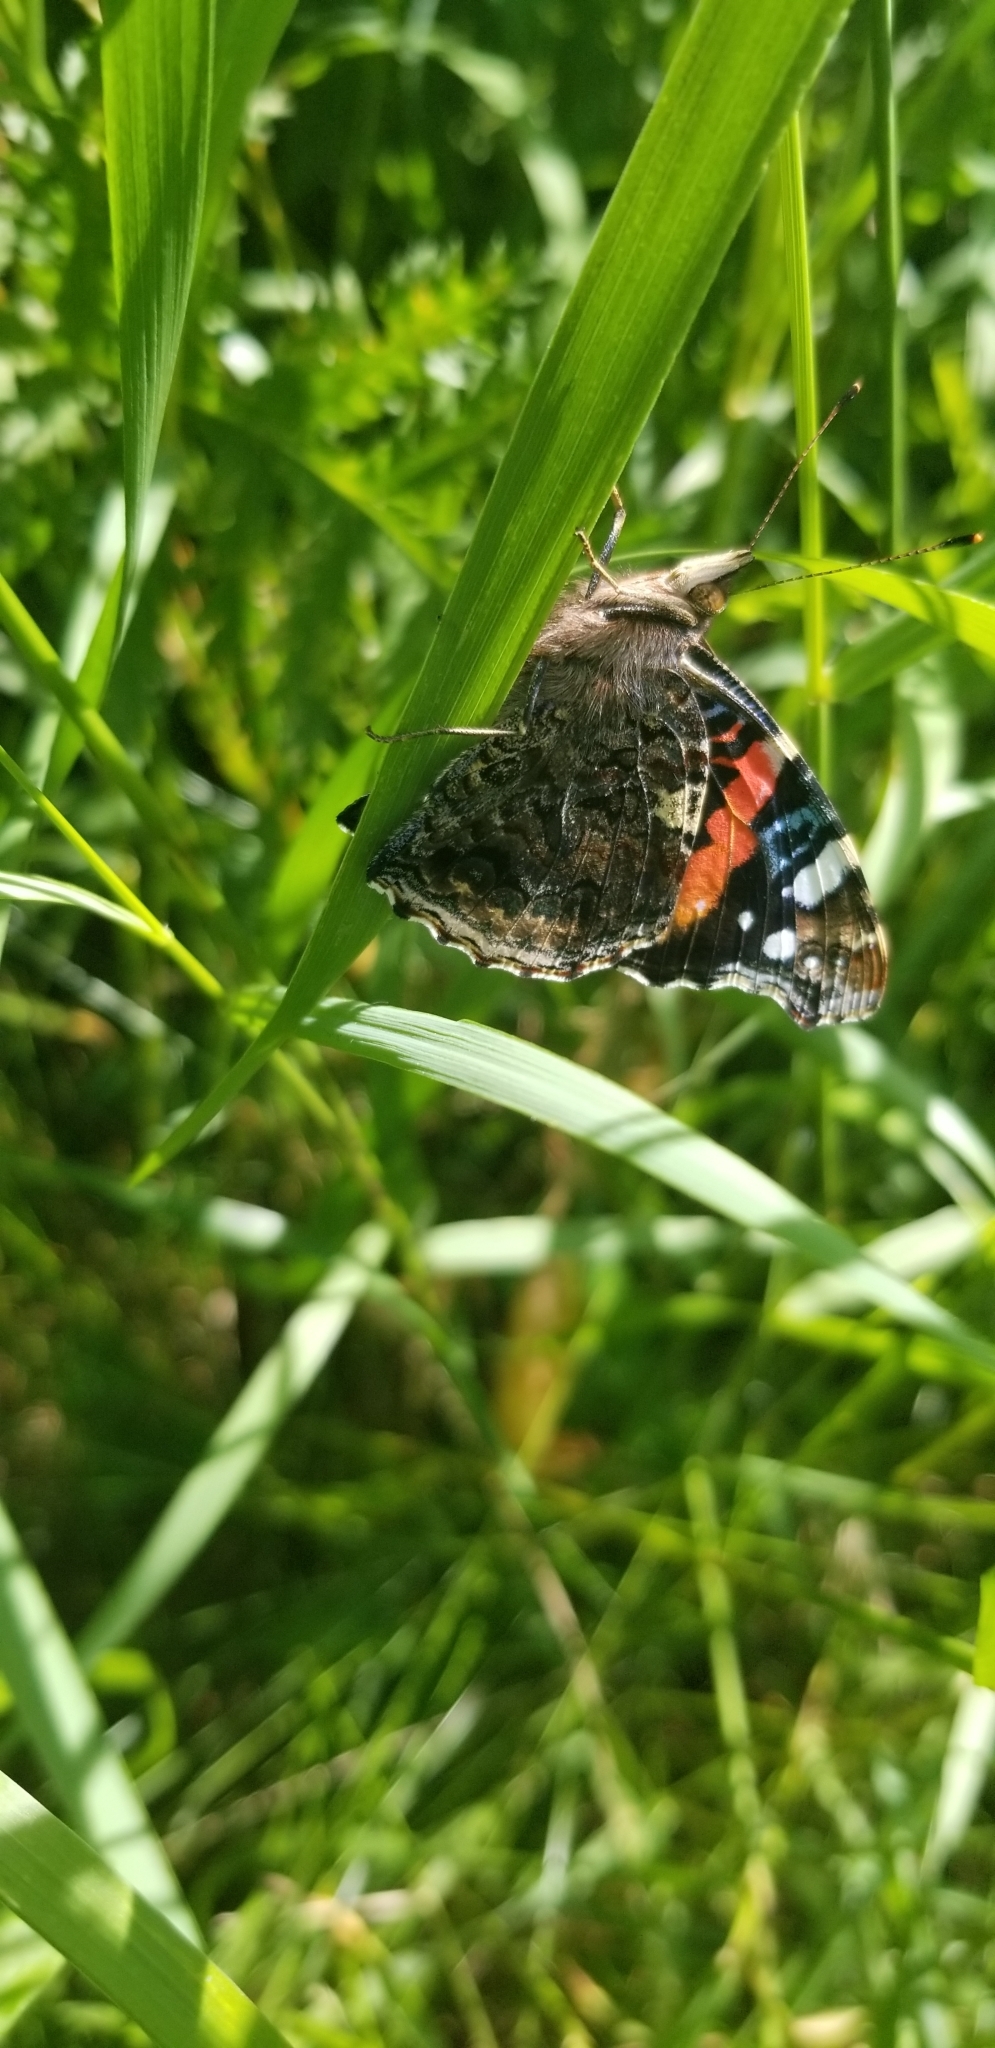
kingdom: Animalia
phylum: Arthropoda
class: Insecta
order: Lepidoptera
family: Nymphalidae
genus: Vanessa
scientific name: Vanessa atalanta
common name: Red admiral
